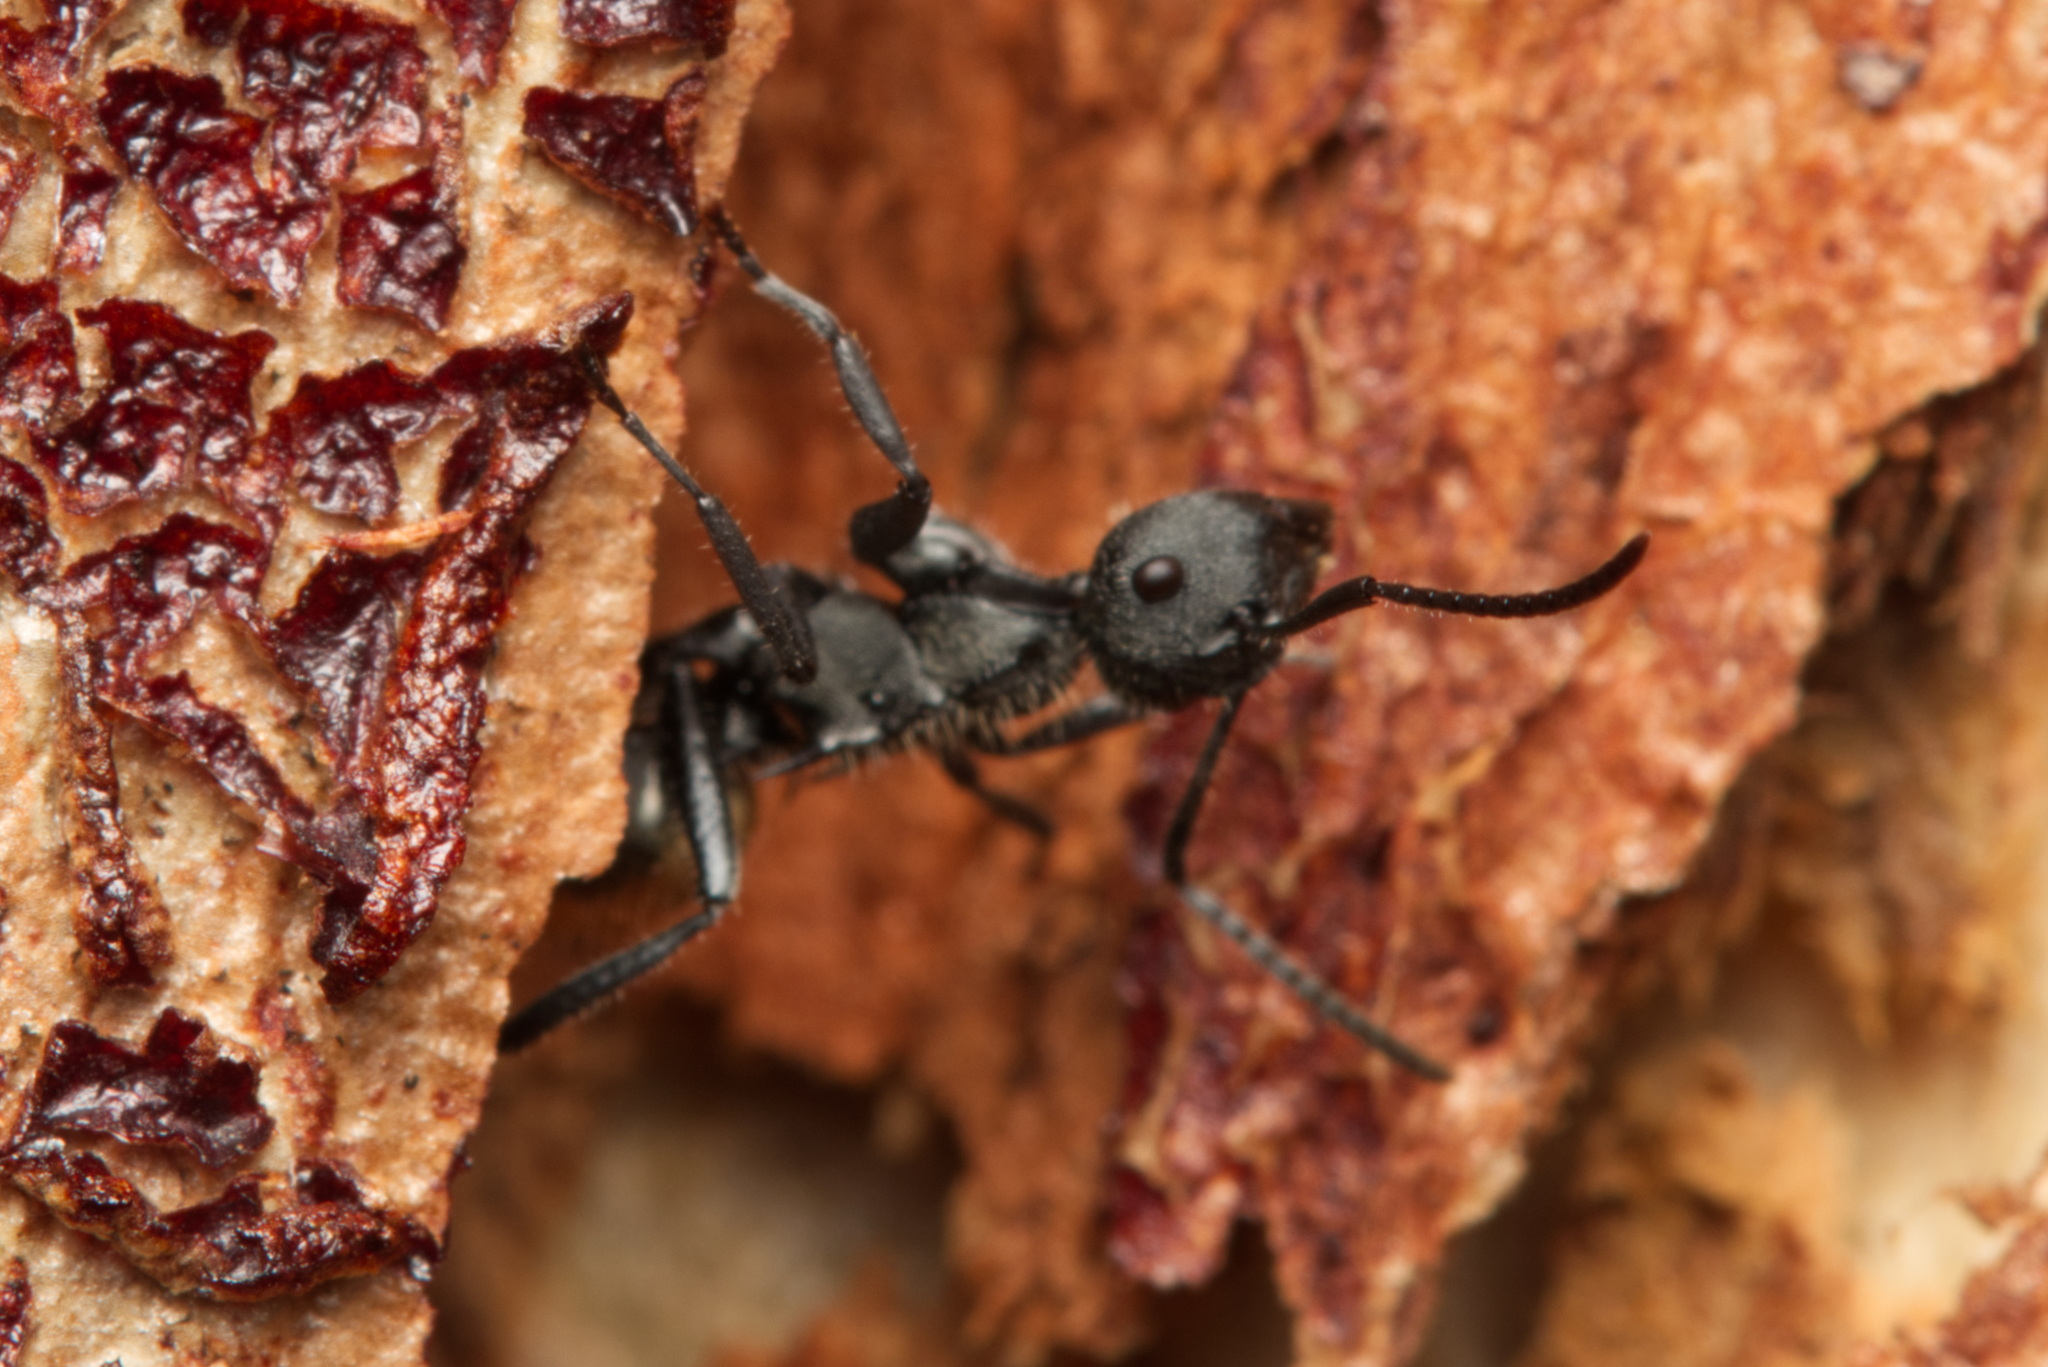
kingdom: Animalia
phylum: Arthropoda
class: Insecta
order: Hymenoptera
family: Formicidae
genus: Polyrhachis
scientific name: Polyrhachis erato
